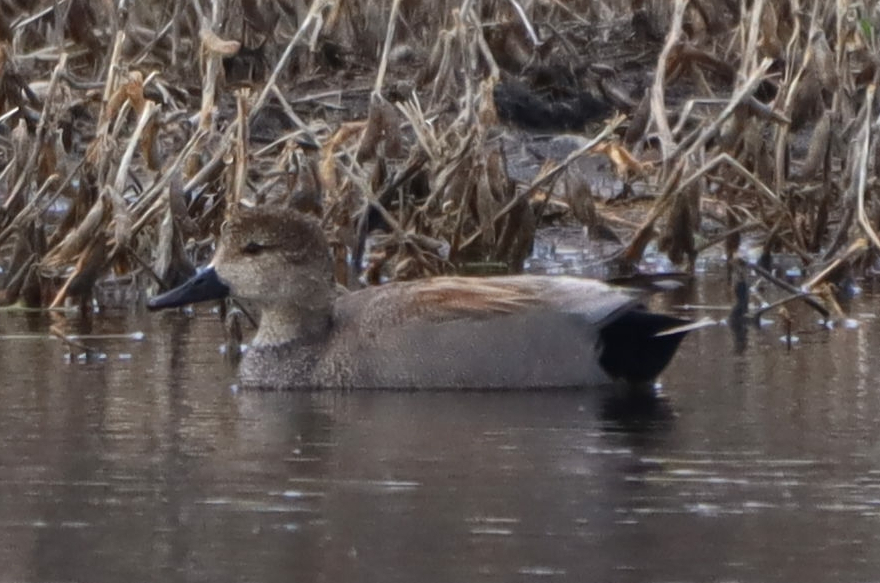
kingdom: Animalia
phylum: Chordata
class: Aves
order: Anseriformes
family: Anatidae
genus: Mareca
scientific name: Mareca strepera
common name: Gadwall
